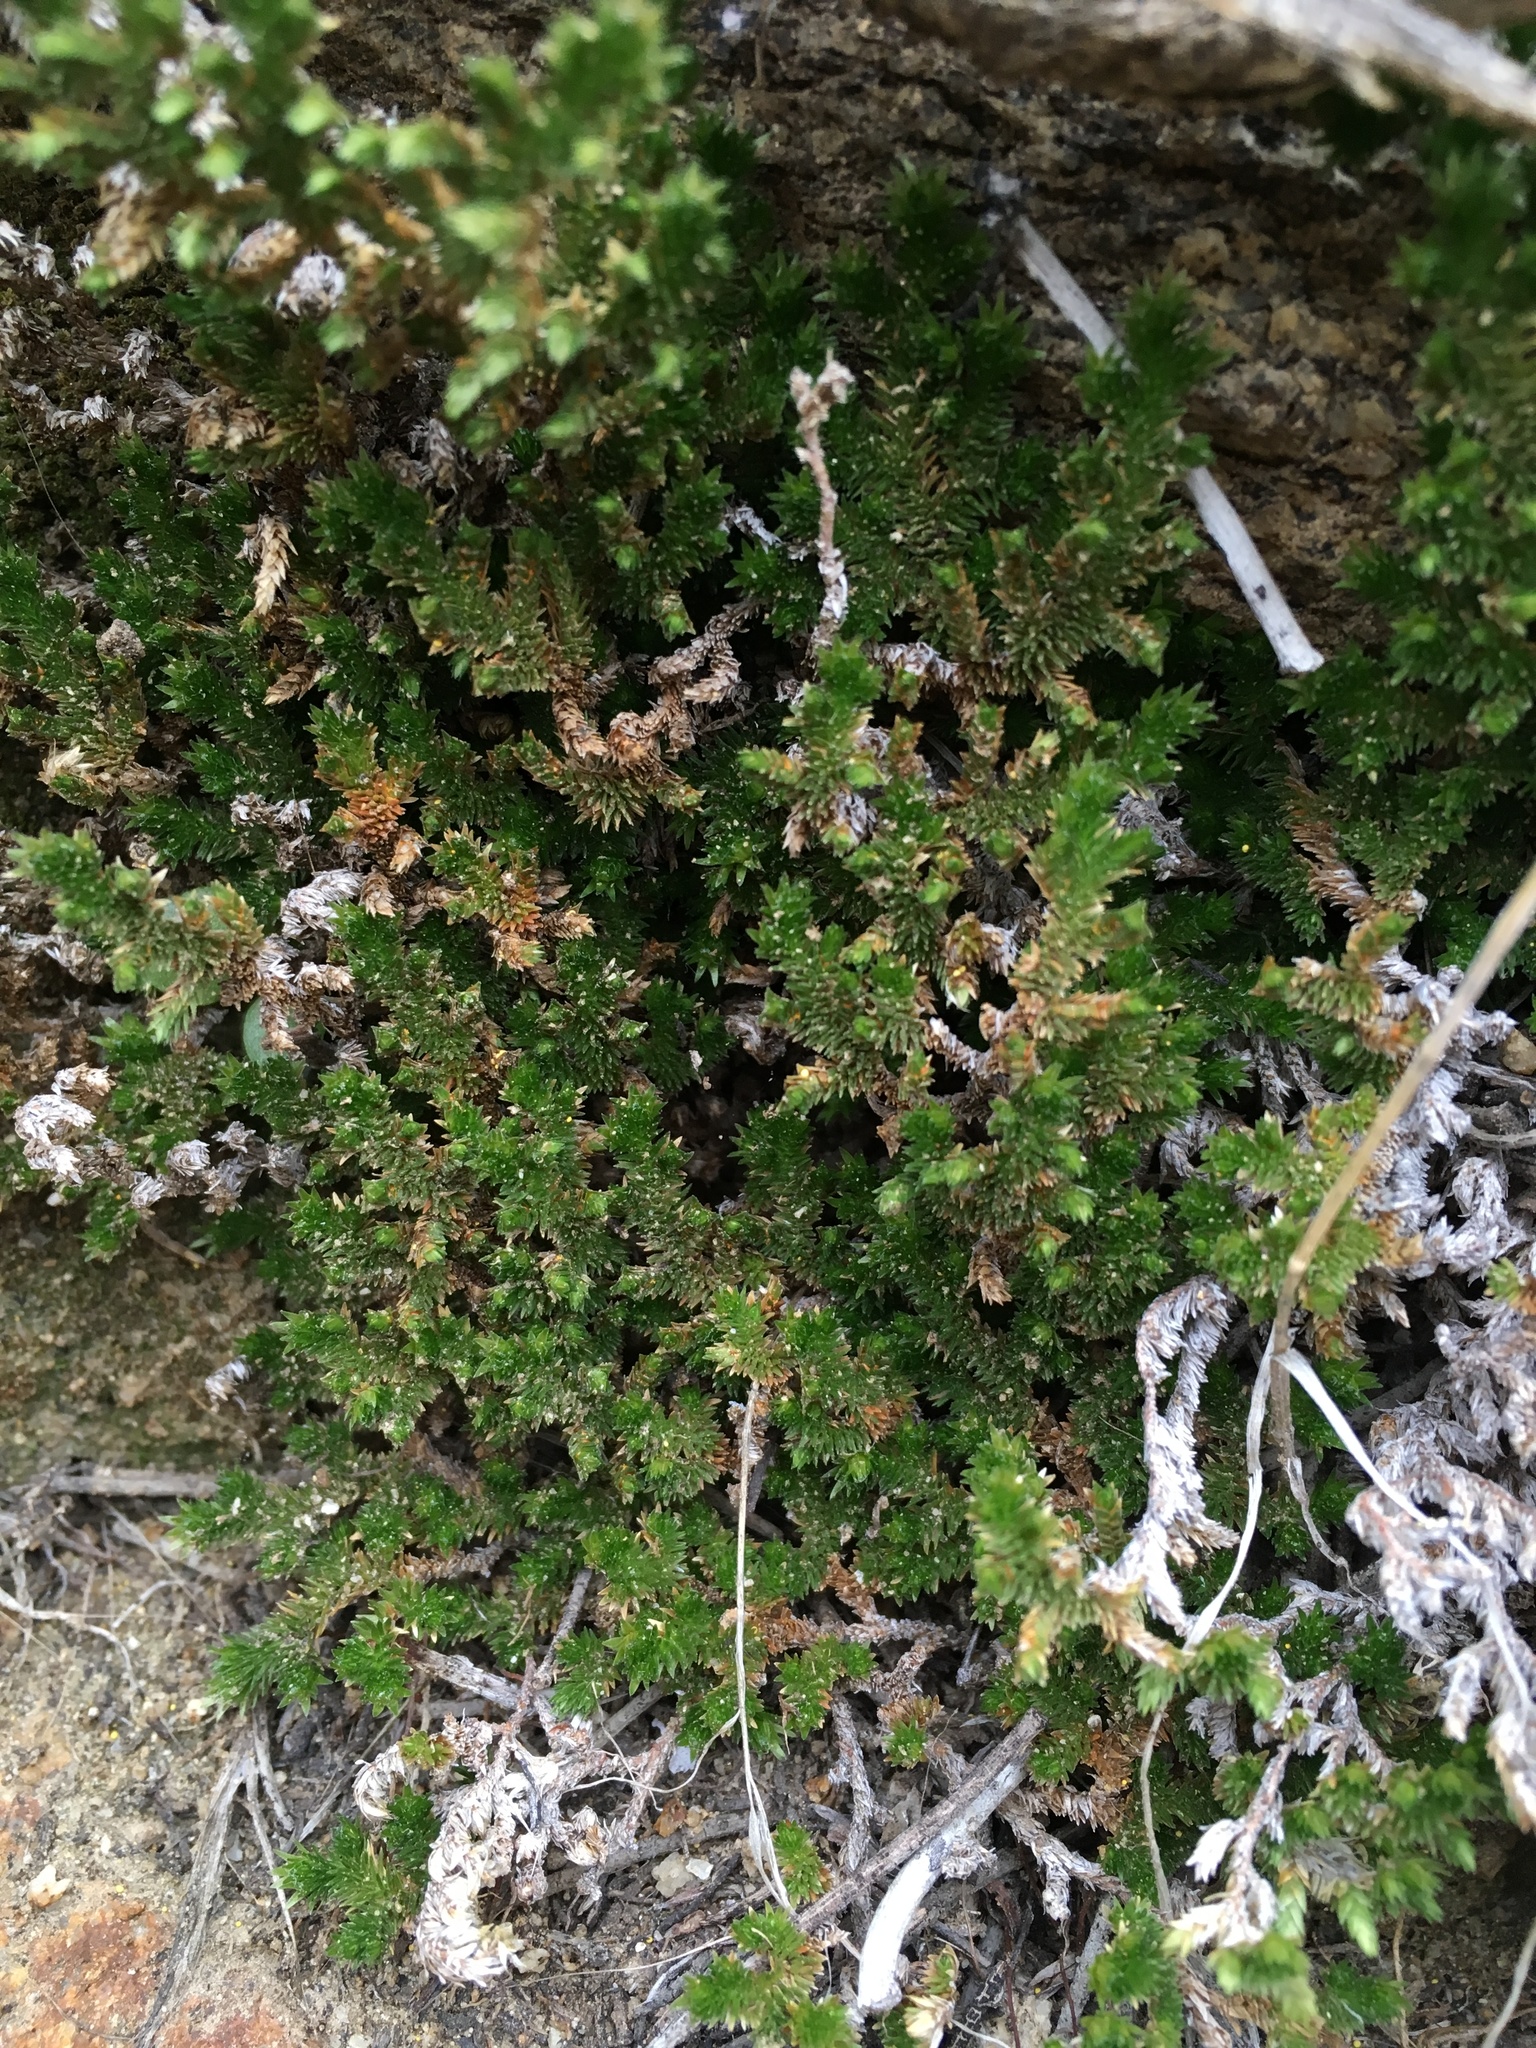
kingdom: Plantae
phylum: Tracheophyta
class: Lycopodiopsida
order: Selaginellales
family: Selaginellaceae
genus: Selaginella
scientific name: Selaginella eremophila
